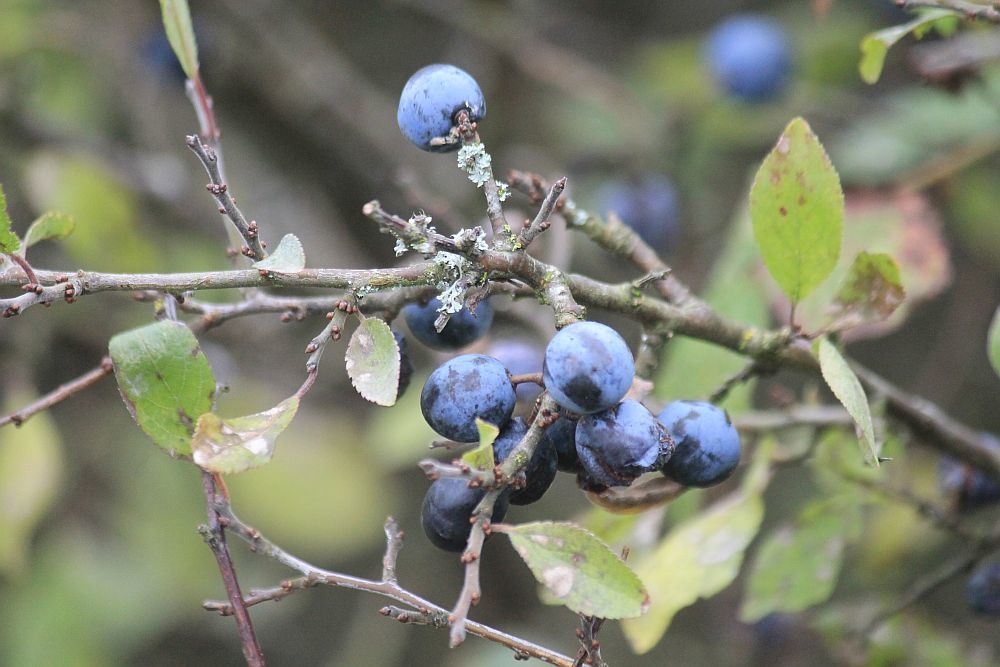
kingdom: Plantae
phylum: Tracheophyta
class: Magnoliopsida
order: Rosales
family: Rosaceae
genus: Prunus
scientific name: Prunus spinosa
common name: Blackthorn
